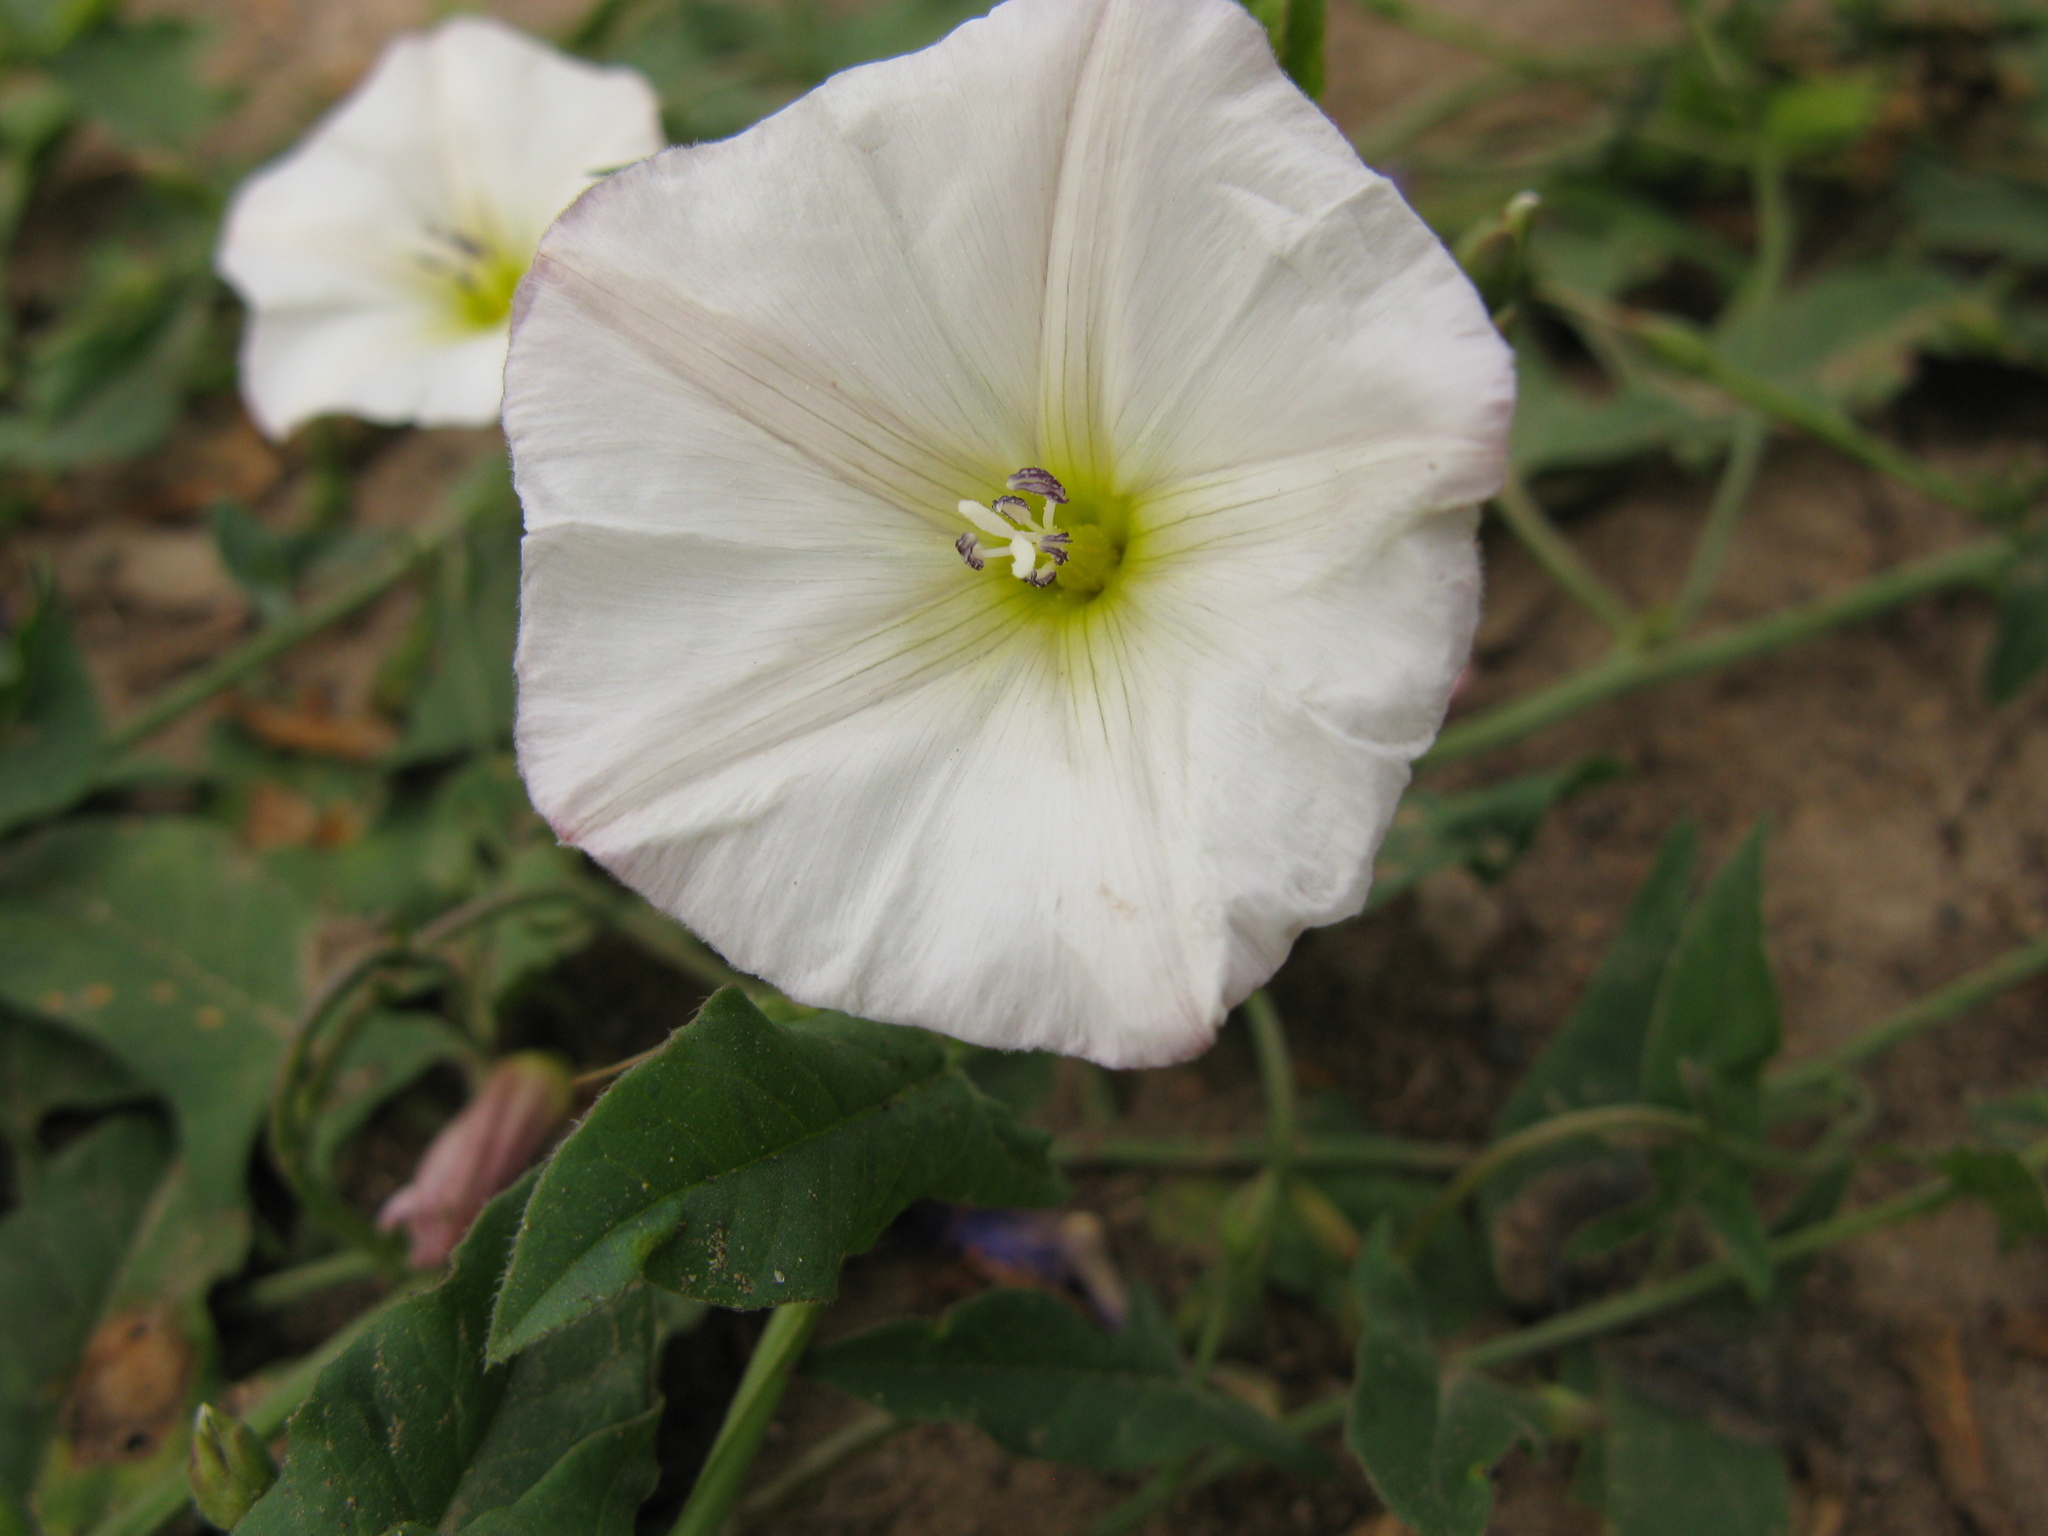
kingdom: Plantae
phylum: Tracheophyta
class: Magnoliopsida
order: Solanales
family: Convolvulaceae
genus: Convolvulus
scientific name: Convolvulus arvensis
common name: Field bindweed
